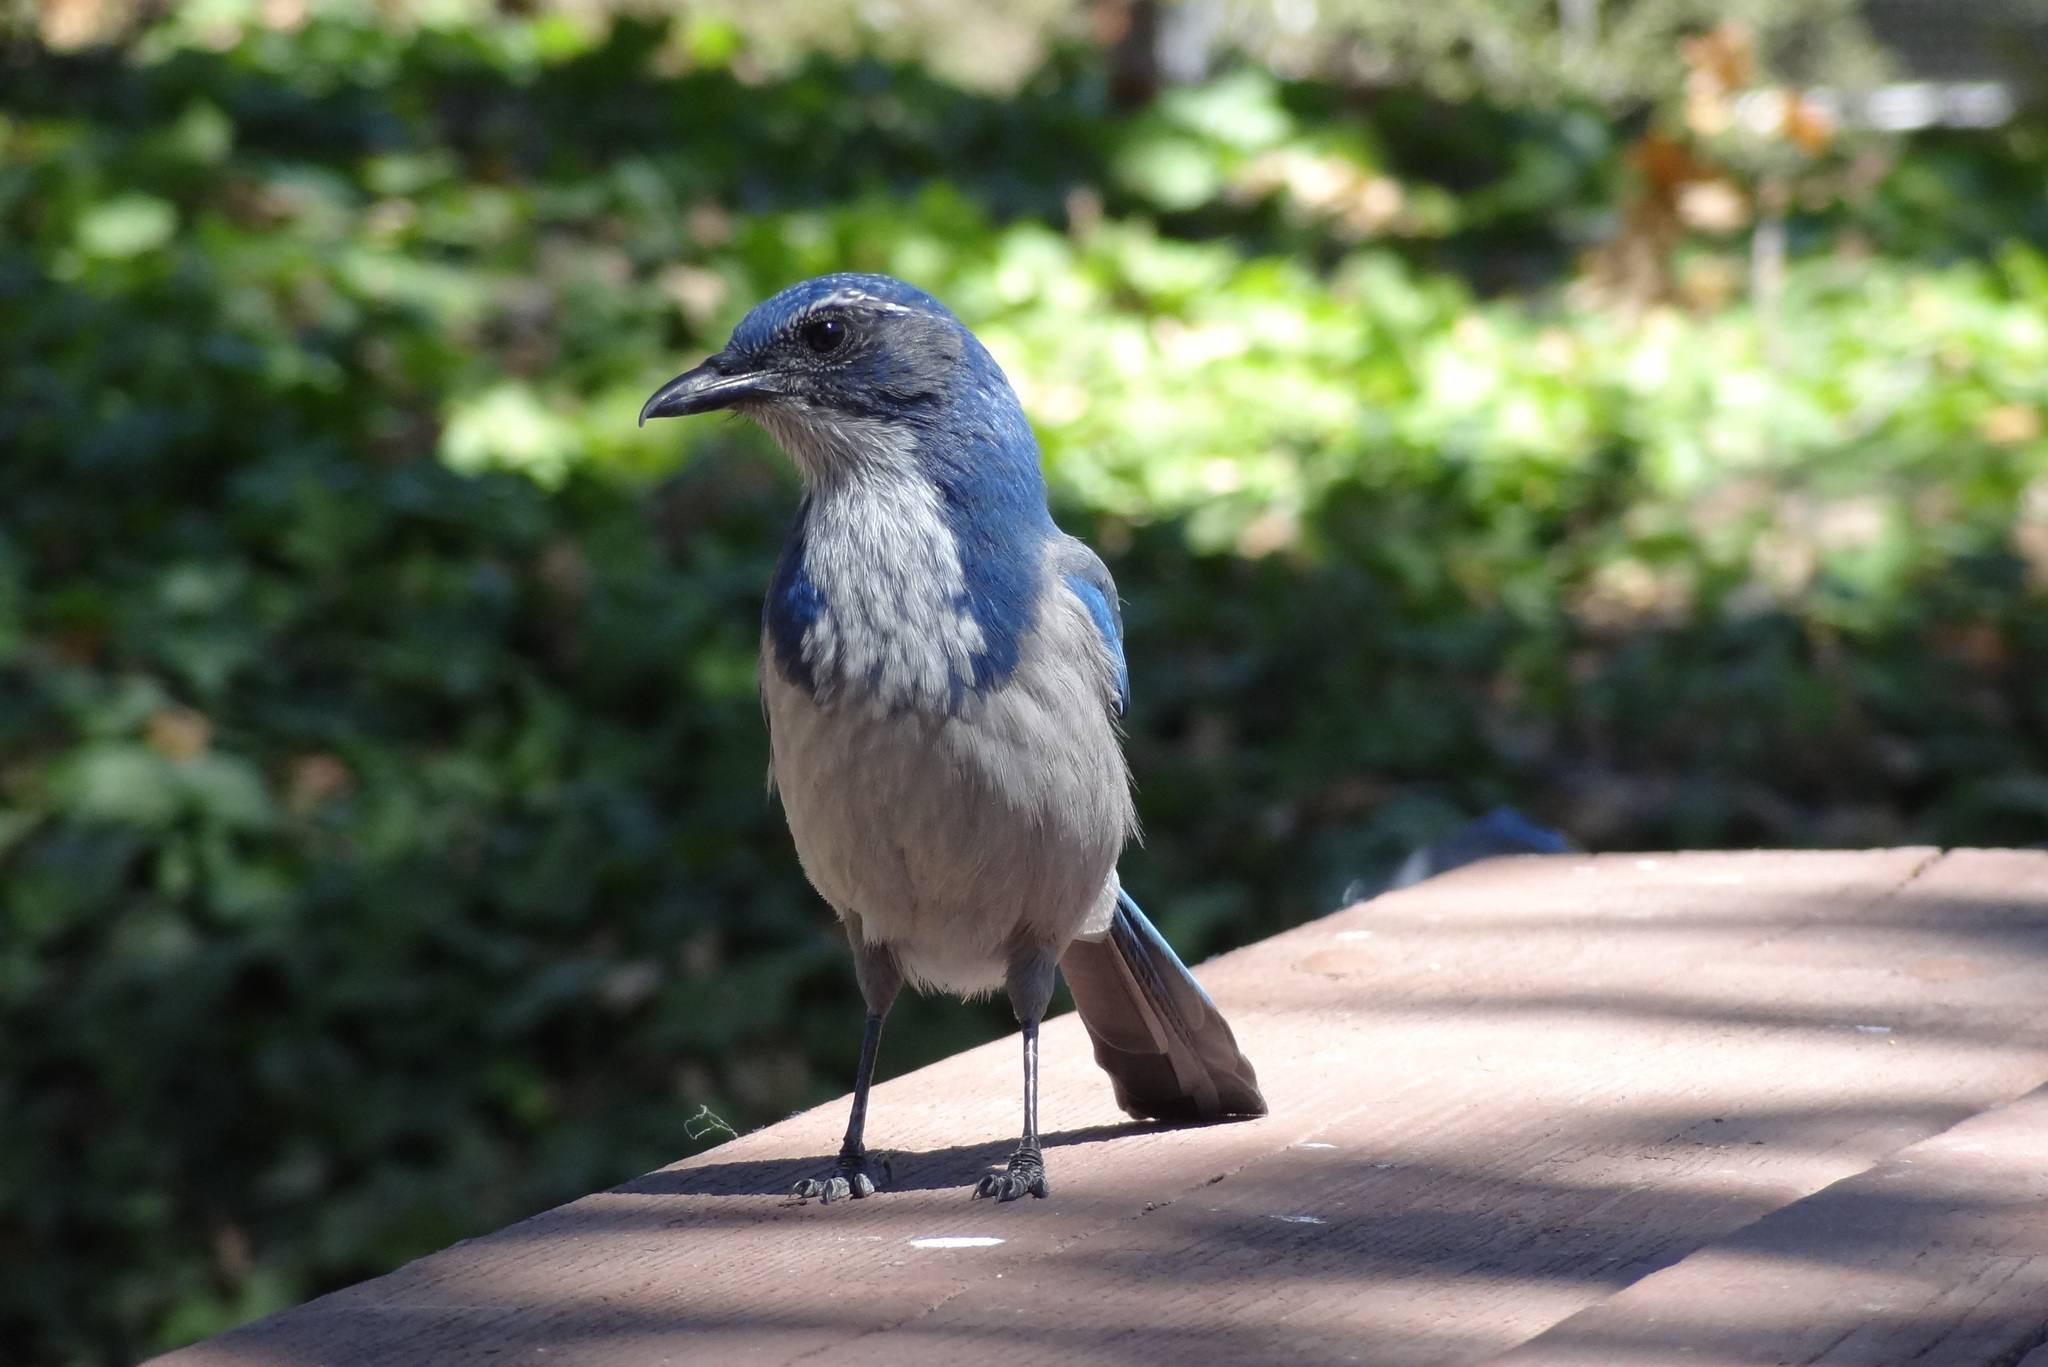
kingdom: Animalia
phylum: Chordata
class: Aves
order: Passeriformes
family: Corvidae
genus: Aphelocoma
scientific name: Aphelocoma californica
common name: California scrub-jay
